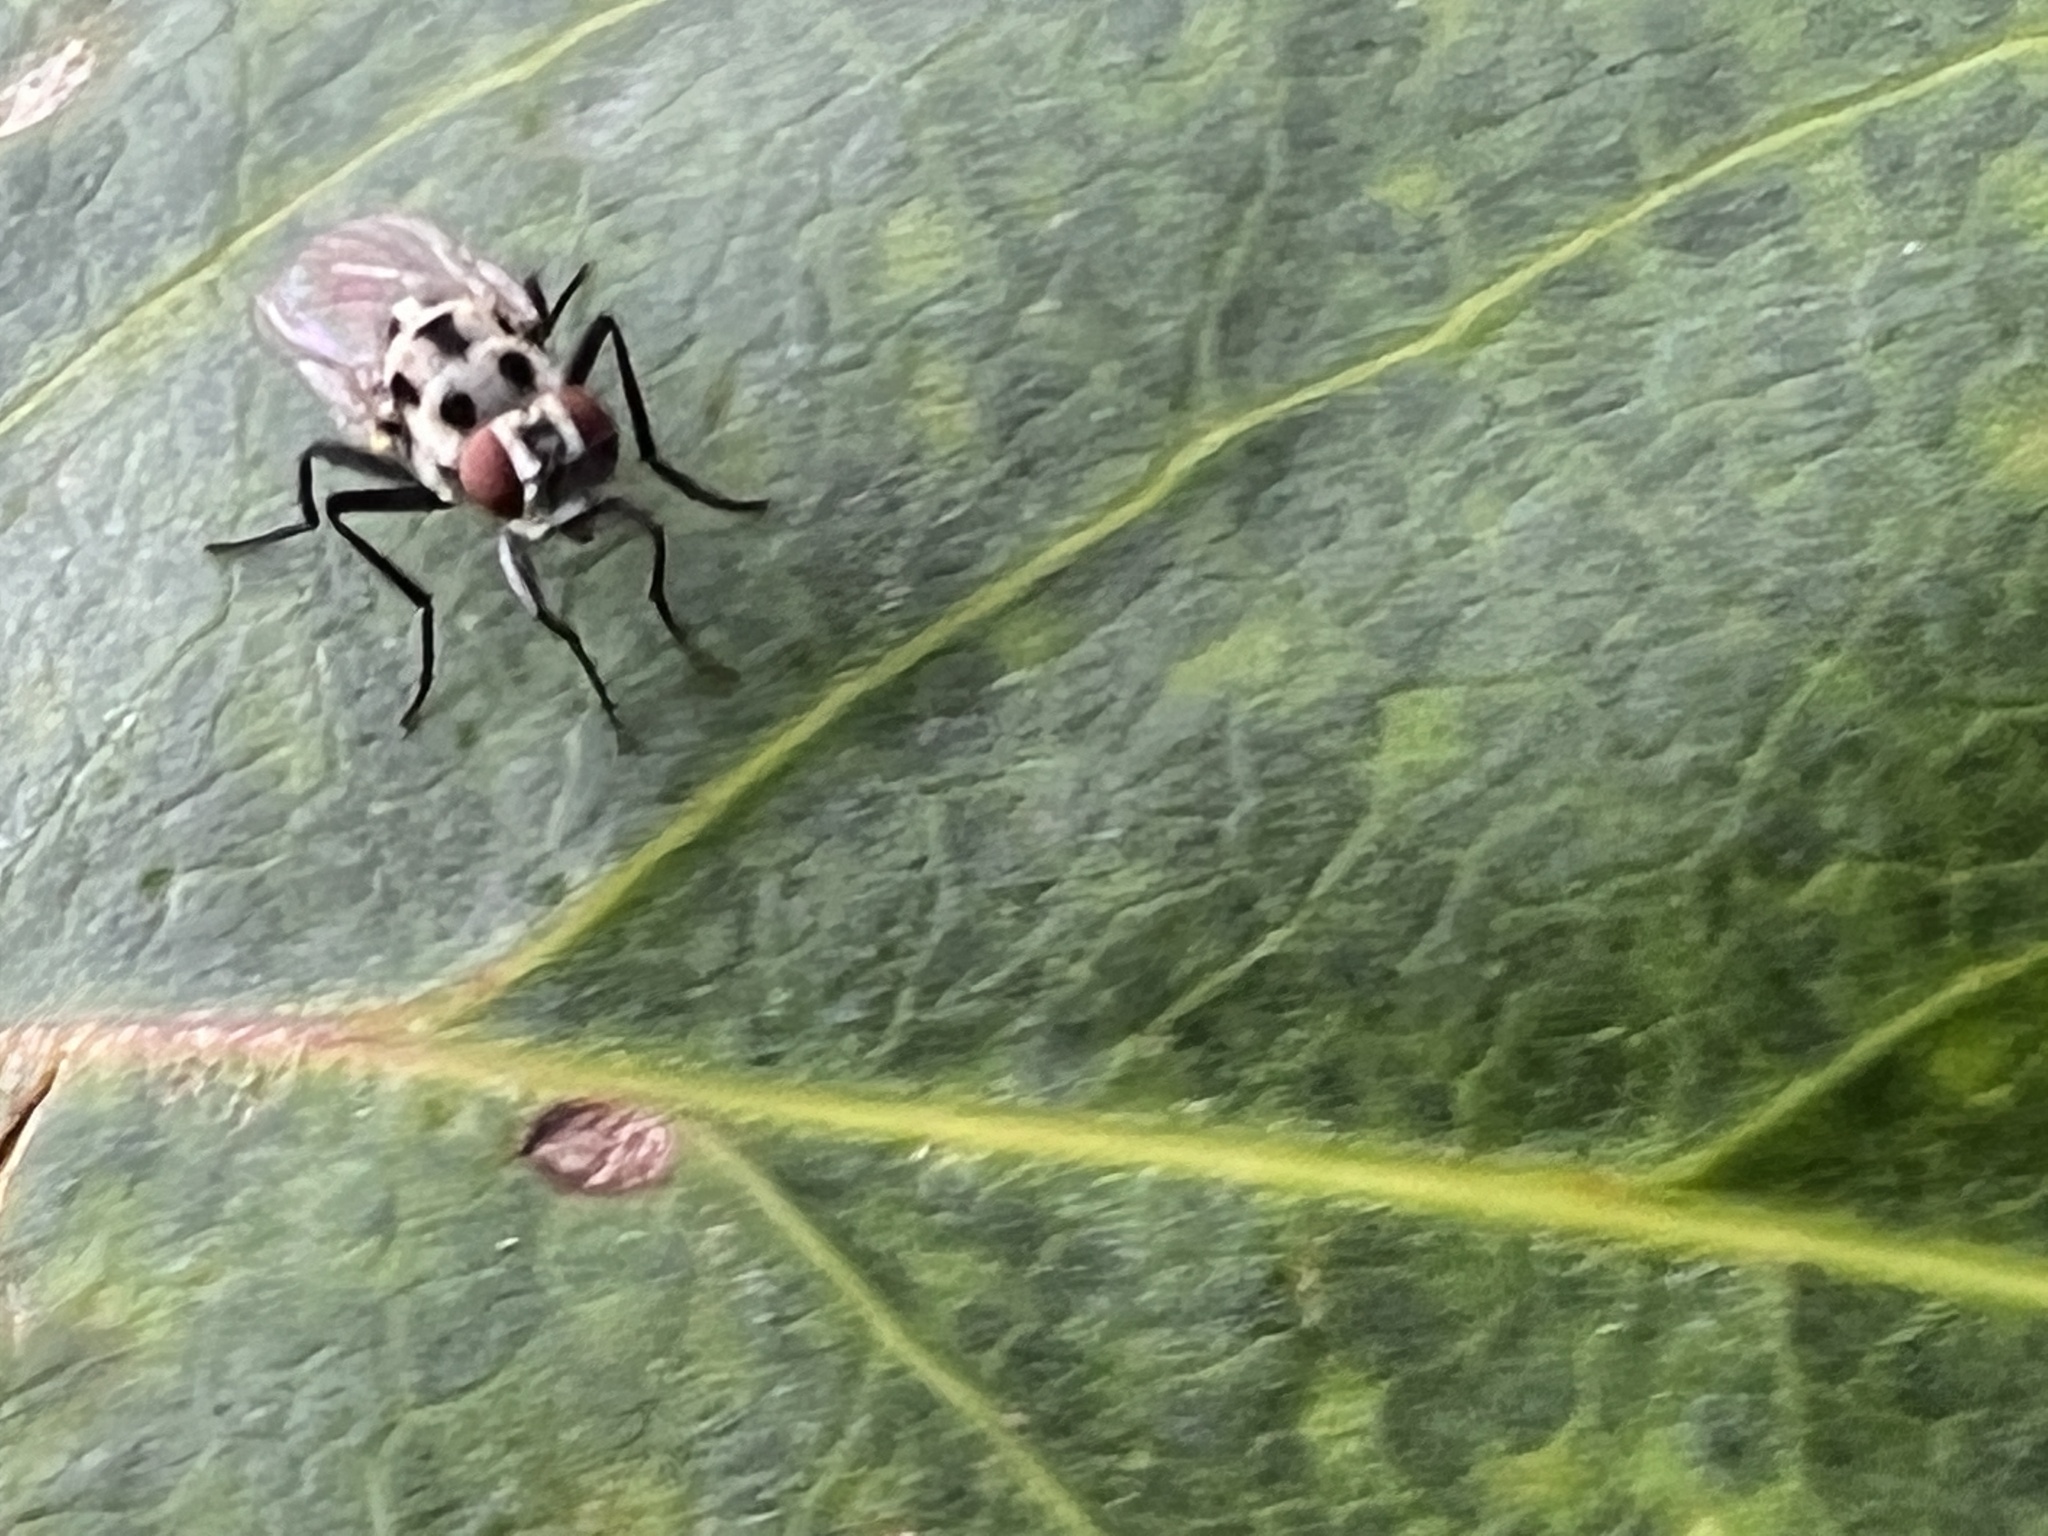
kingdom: Animalia
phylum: Arthropoda
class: Insecta
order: Diptera
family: Anthomyiidae
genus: Anthomyia
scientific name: Anthomyia procellaris
